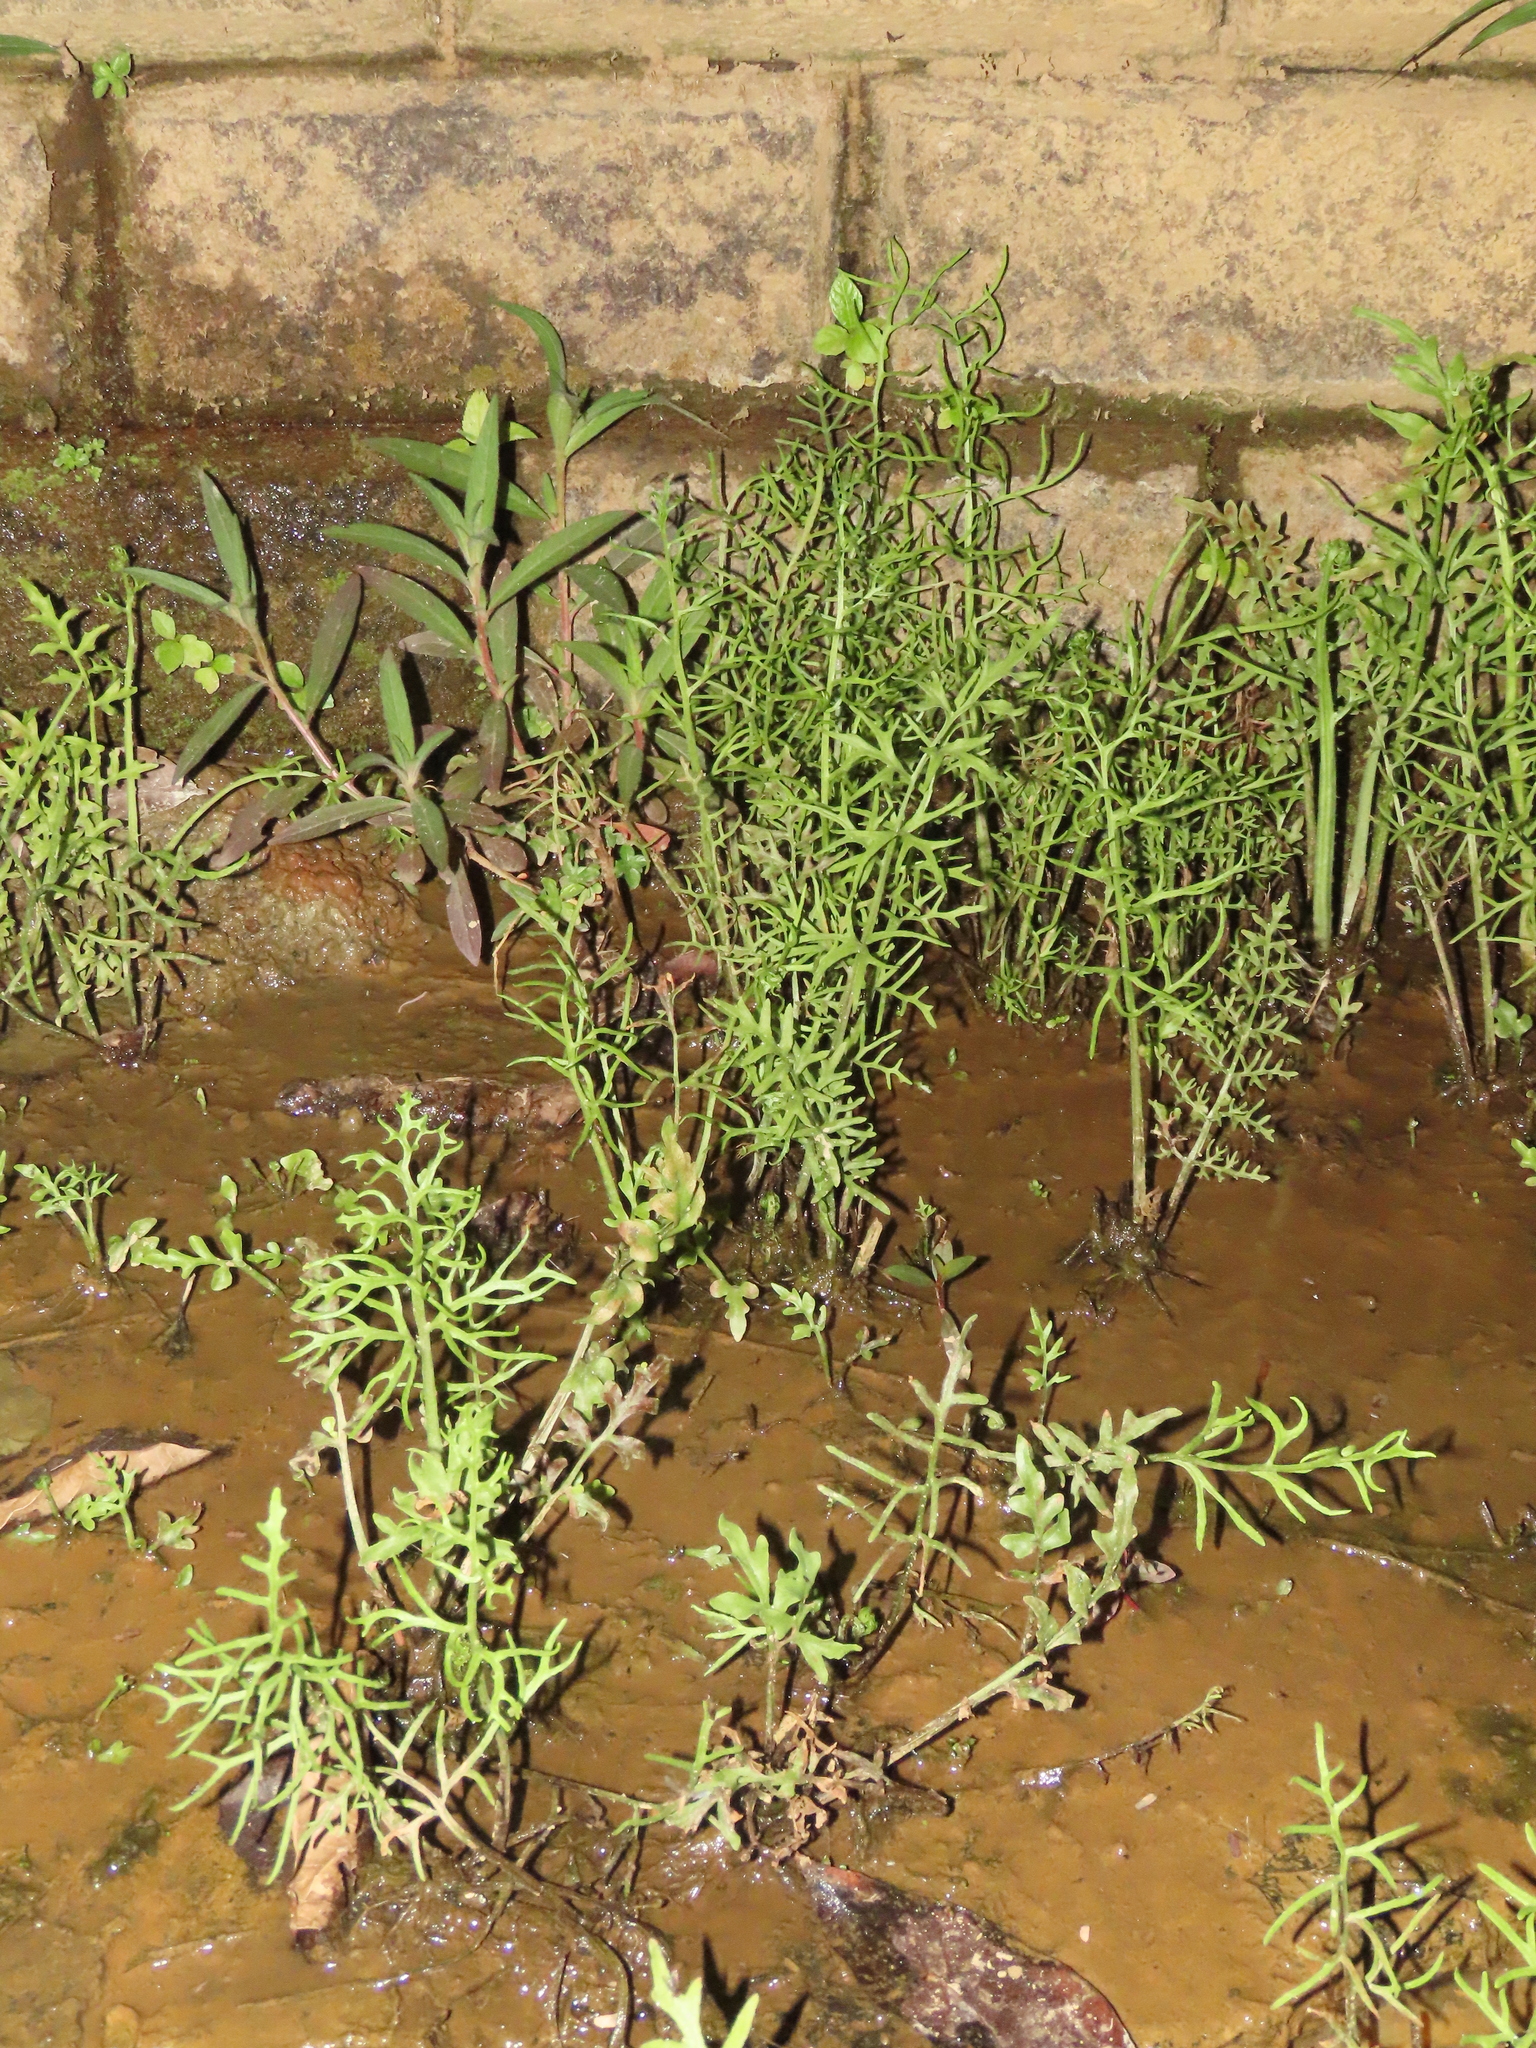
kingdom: Plantae
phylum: Tracheophyta
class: Polypodiopsida
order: Polypodiales
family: Pteridaceae
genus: Ceratopteris
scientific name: Ceratopteris thalictroides
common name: Water fern
